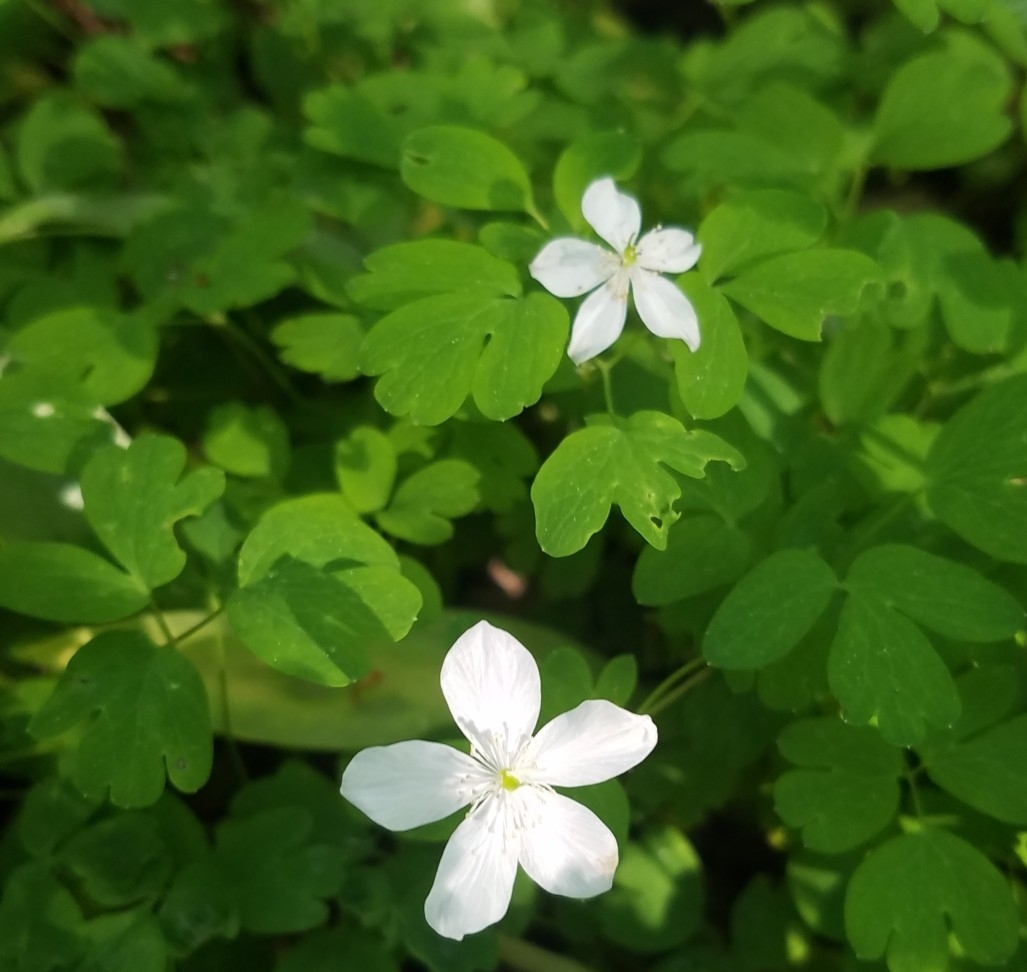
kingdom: Plantae
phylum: Tracheophyta
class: Magnoliopsida
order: Ranunculales
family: Ranunculaceae
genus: Enemion
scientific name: Enemion biternatum
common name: Eastern false rue-anemone
